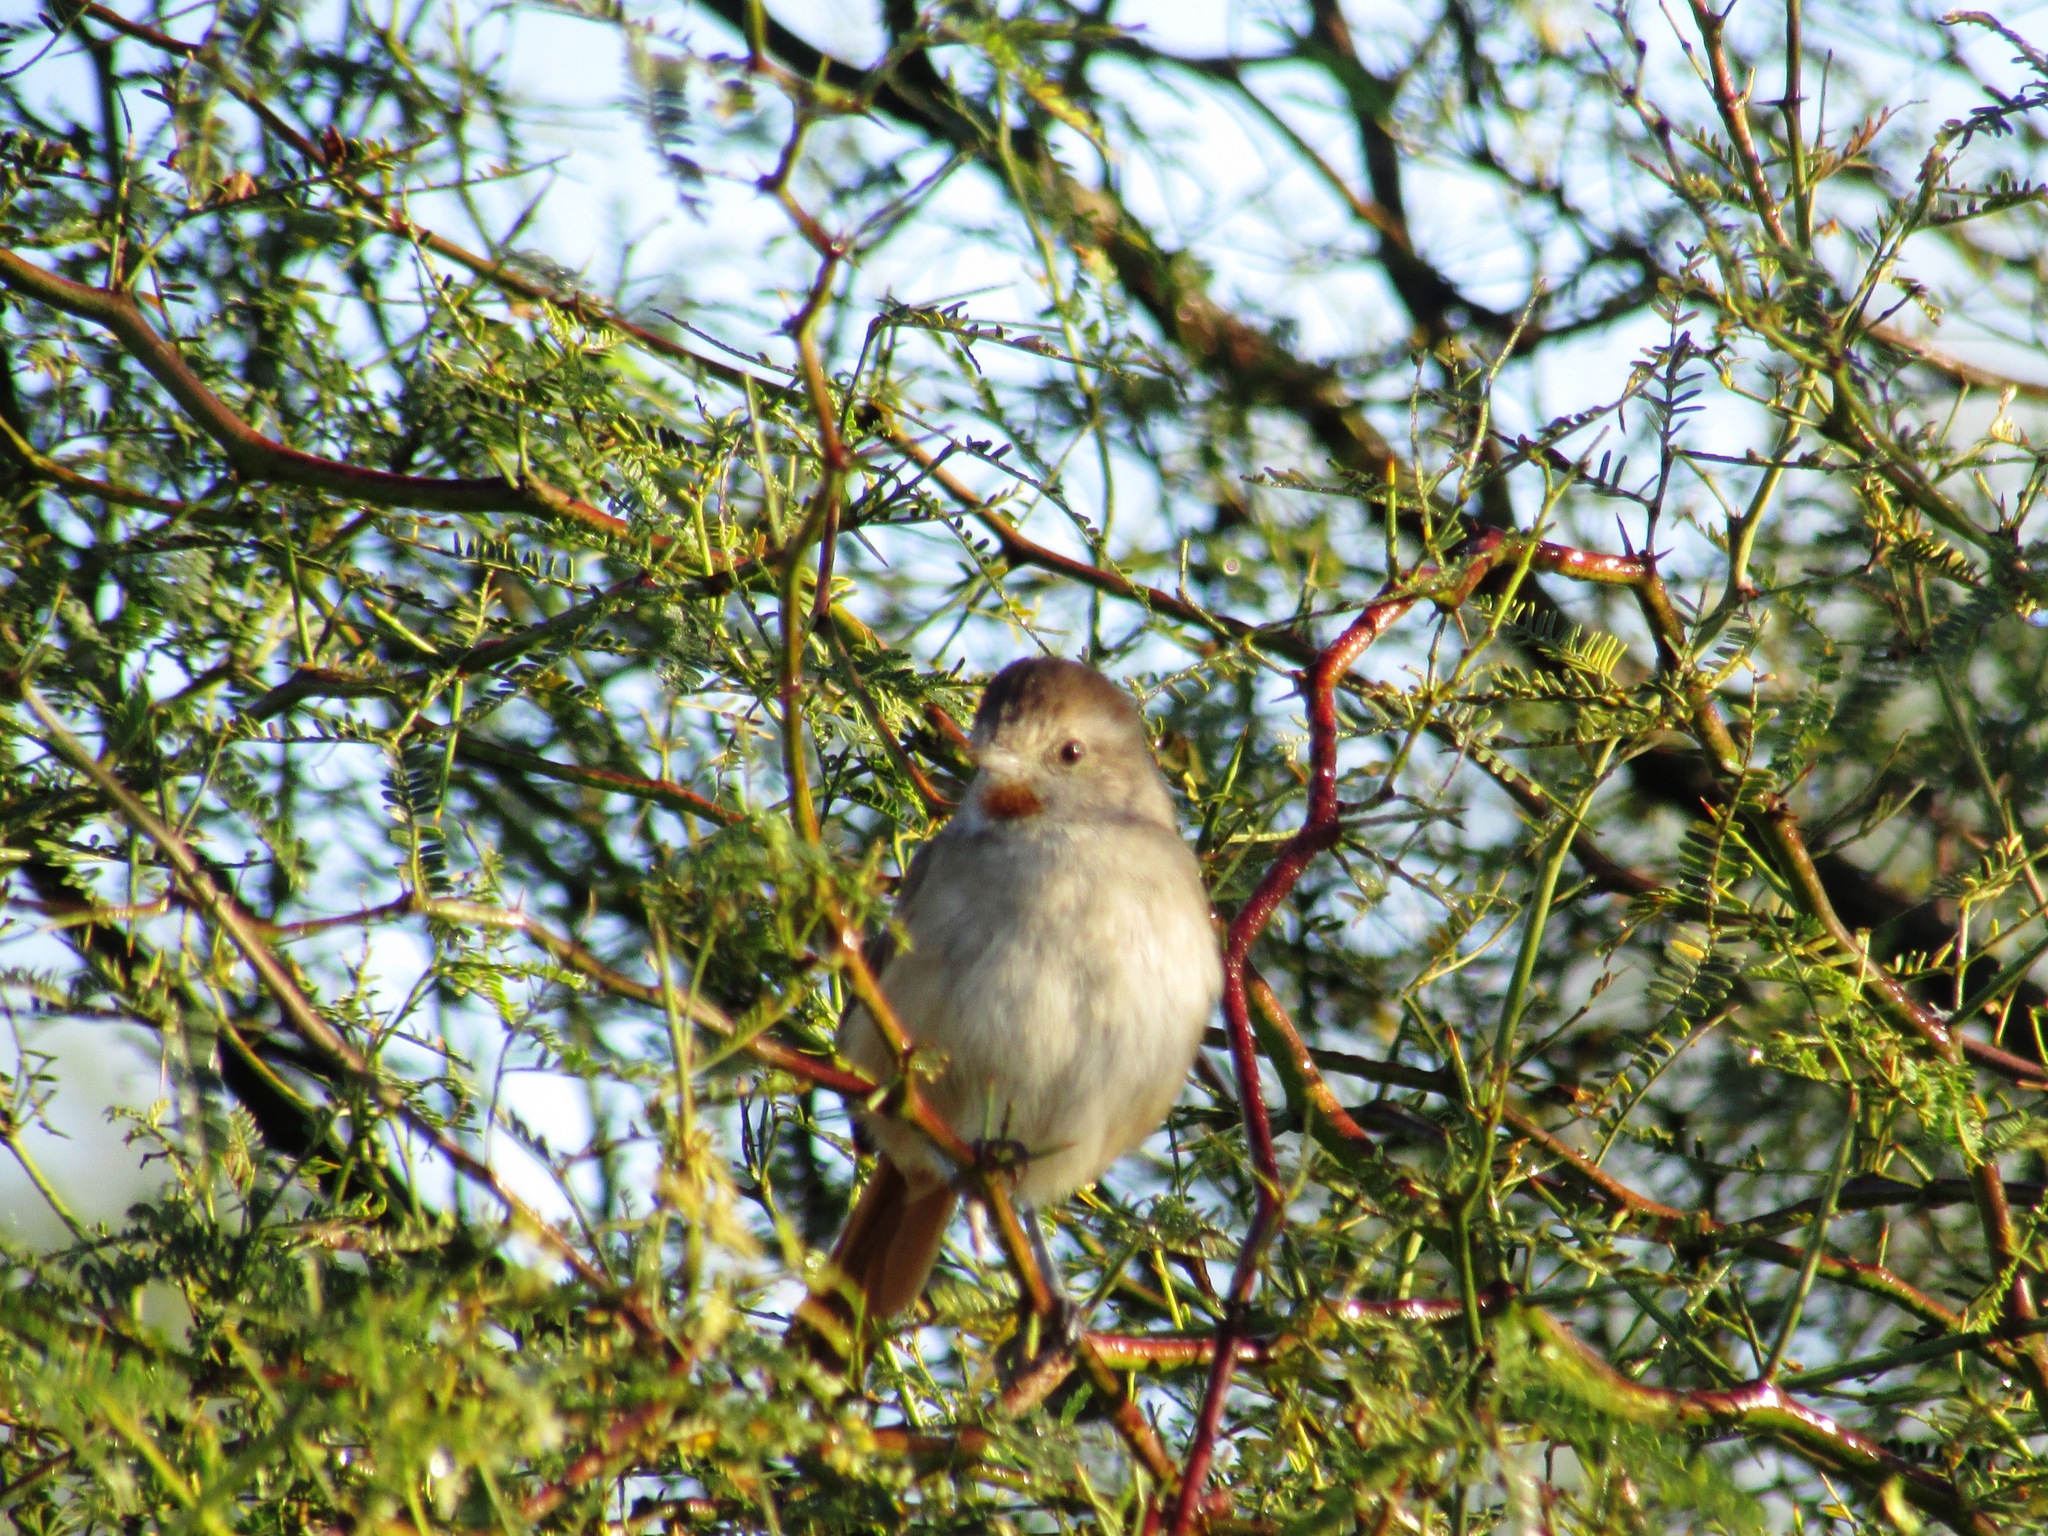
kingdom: Animalia
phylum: Chordata
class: Aves
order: Passeriformes
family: Furnariidae
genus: Asthenes
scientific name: Asthenes baeri
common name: Short-billed canastero
